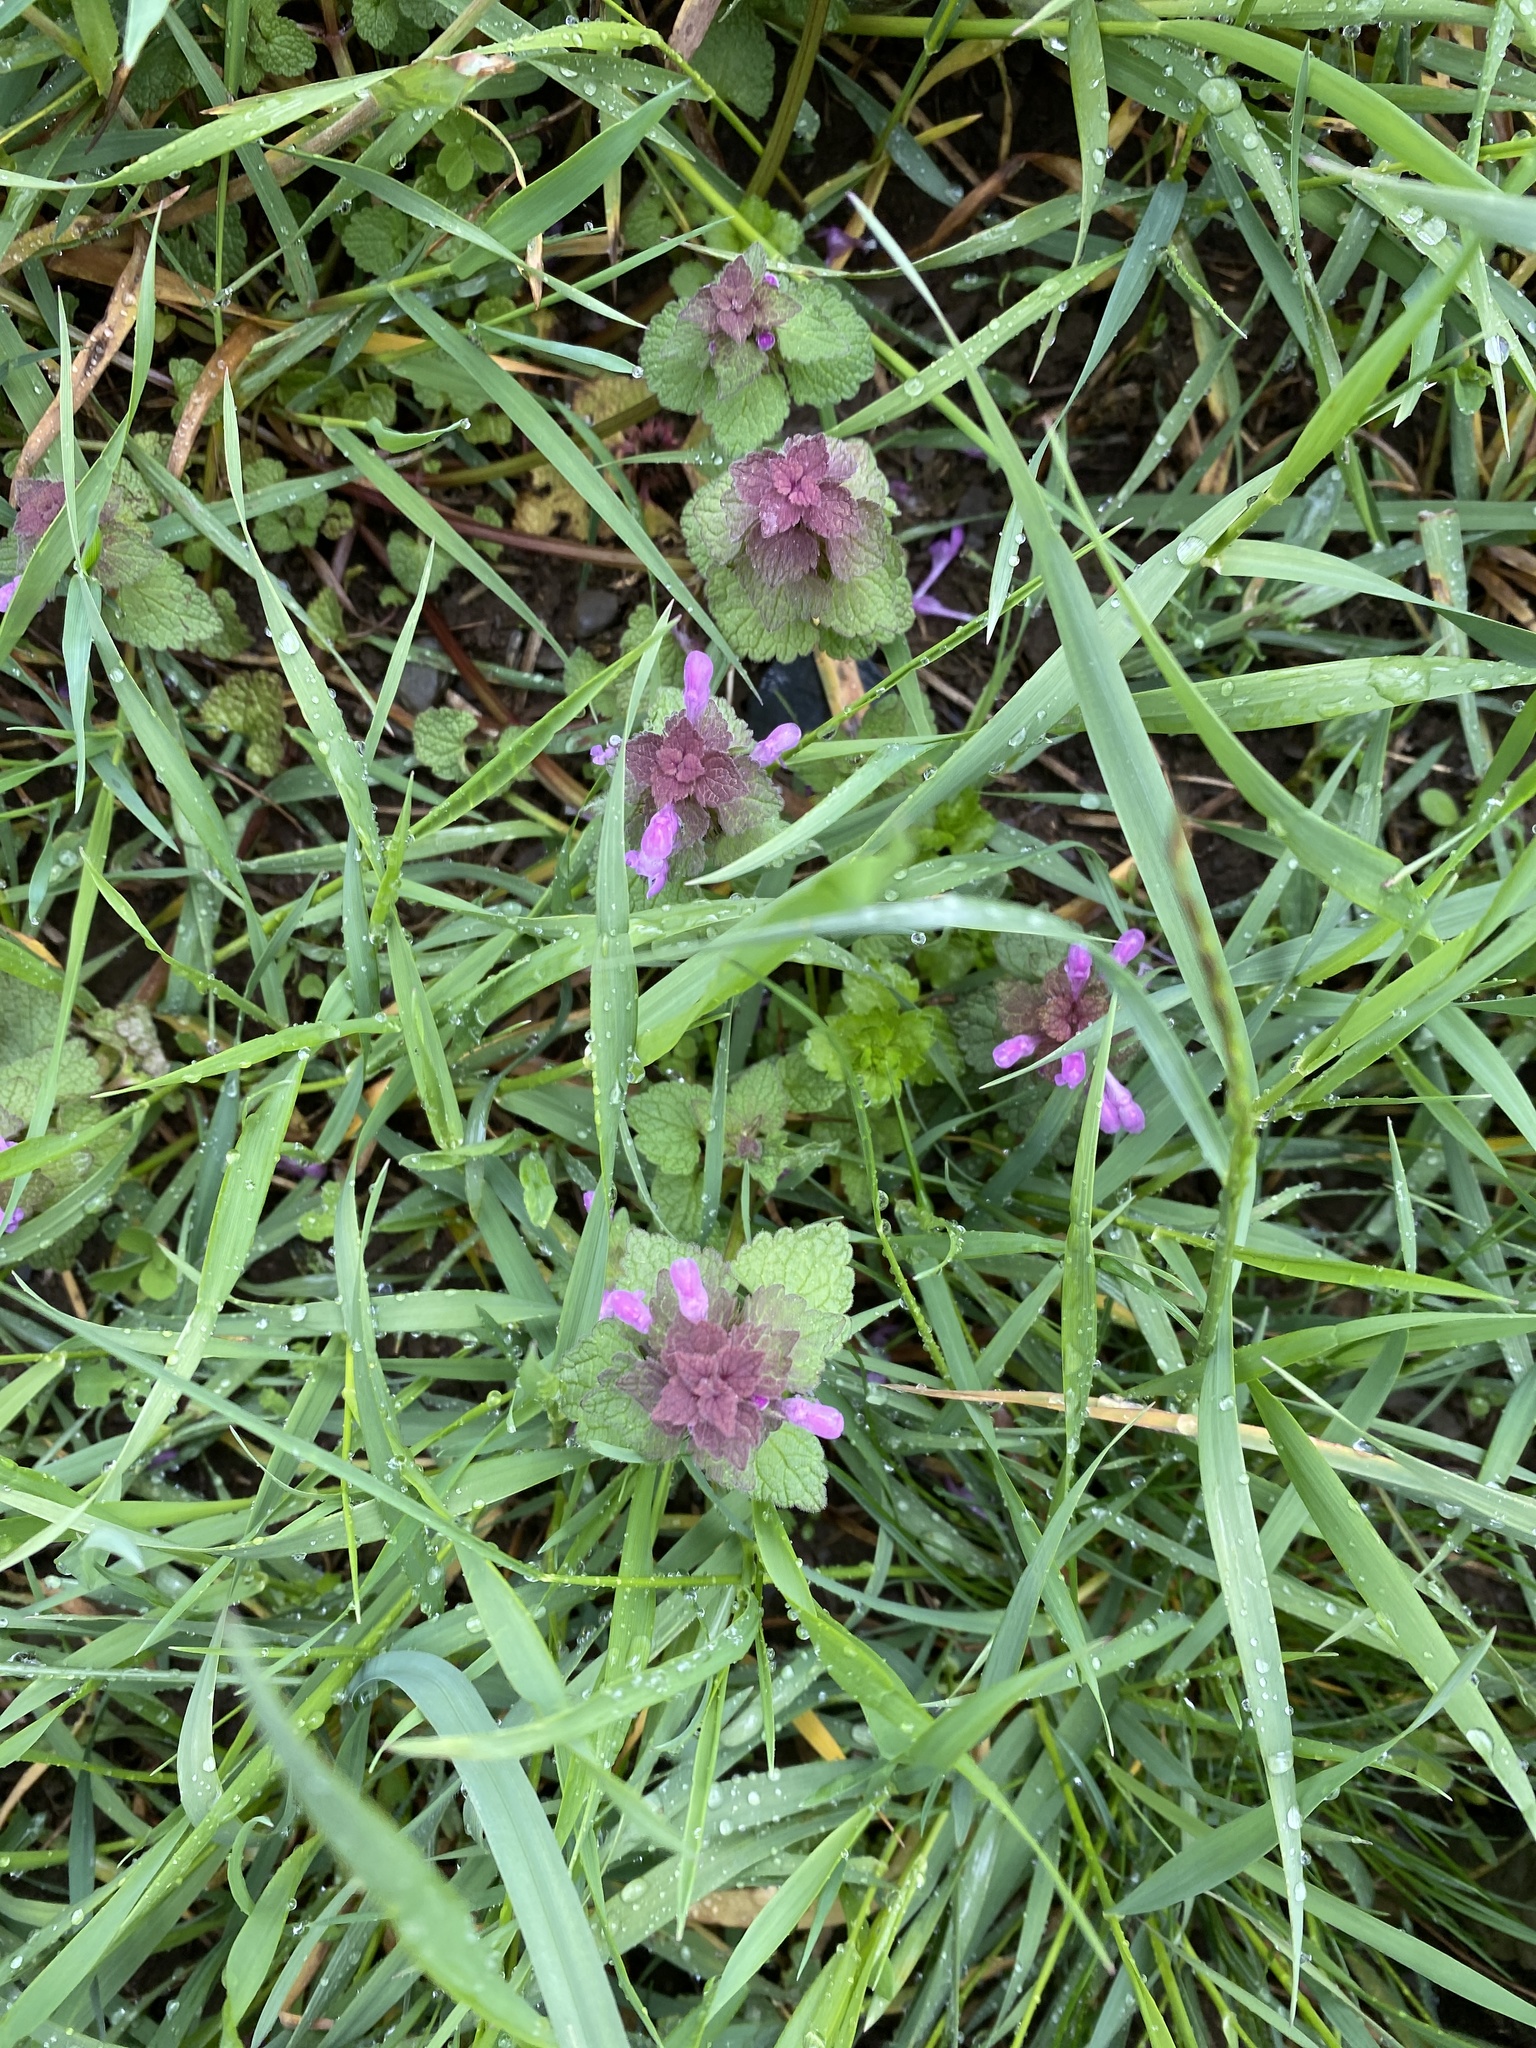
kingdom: Plantae
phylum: Tracheophyta
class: Magnoliopsida
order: Lamiales
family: Lamiaceae
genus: Lamium
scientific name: Lamium purpureum
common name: Red dead-nettle
